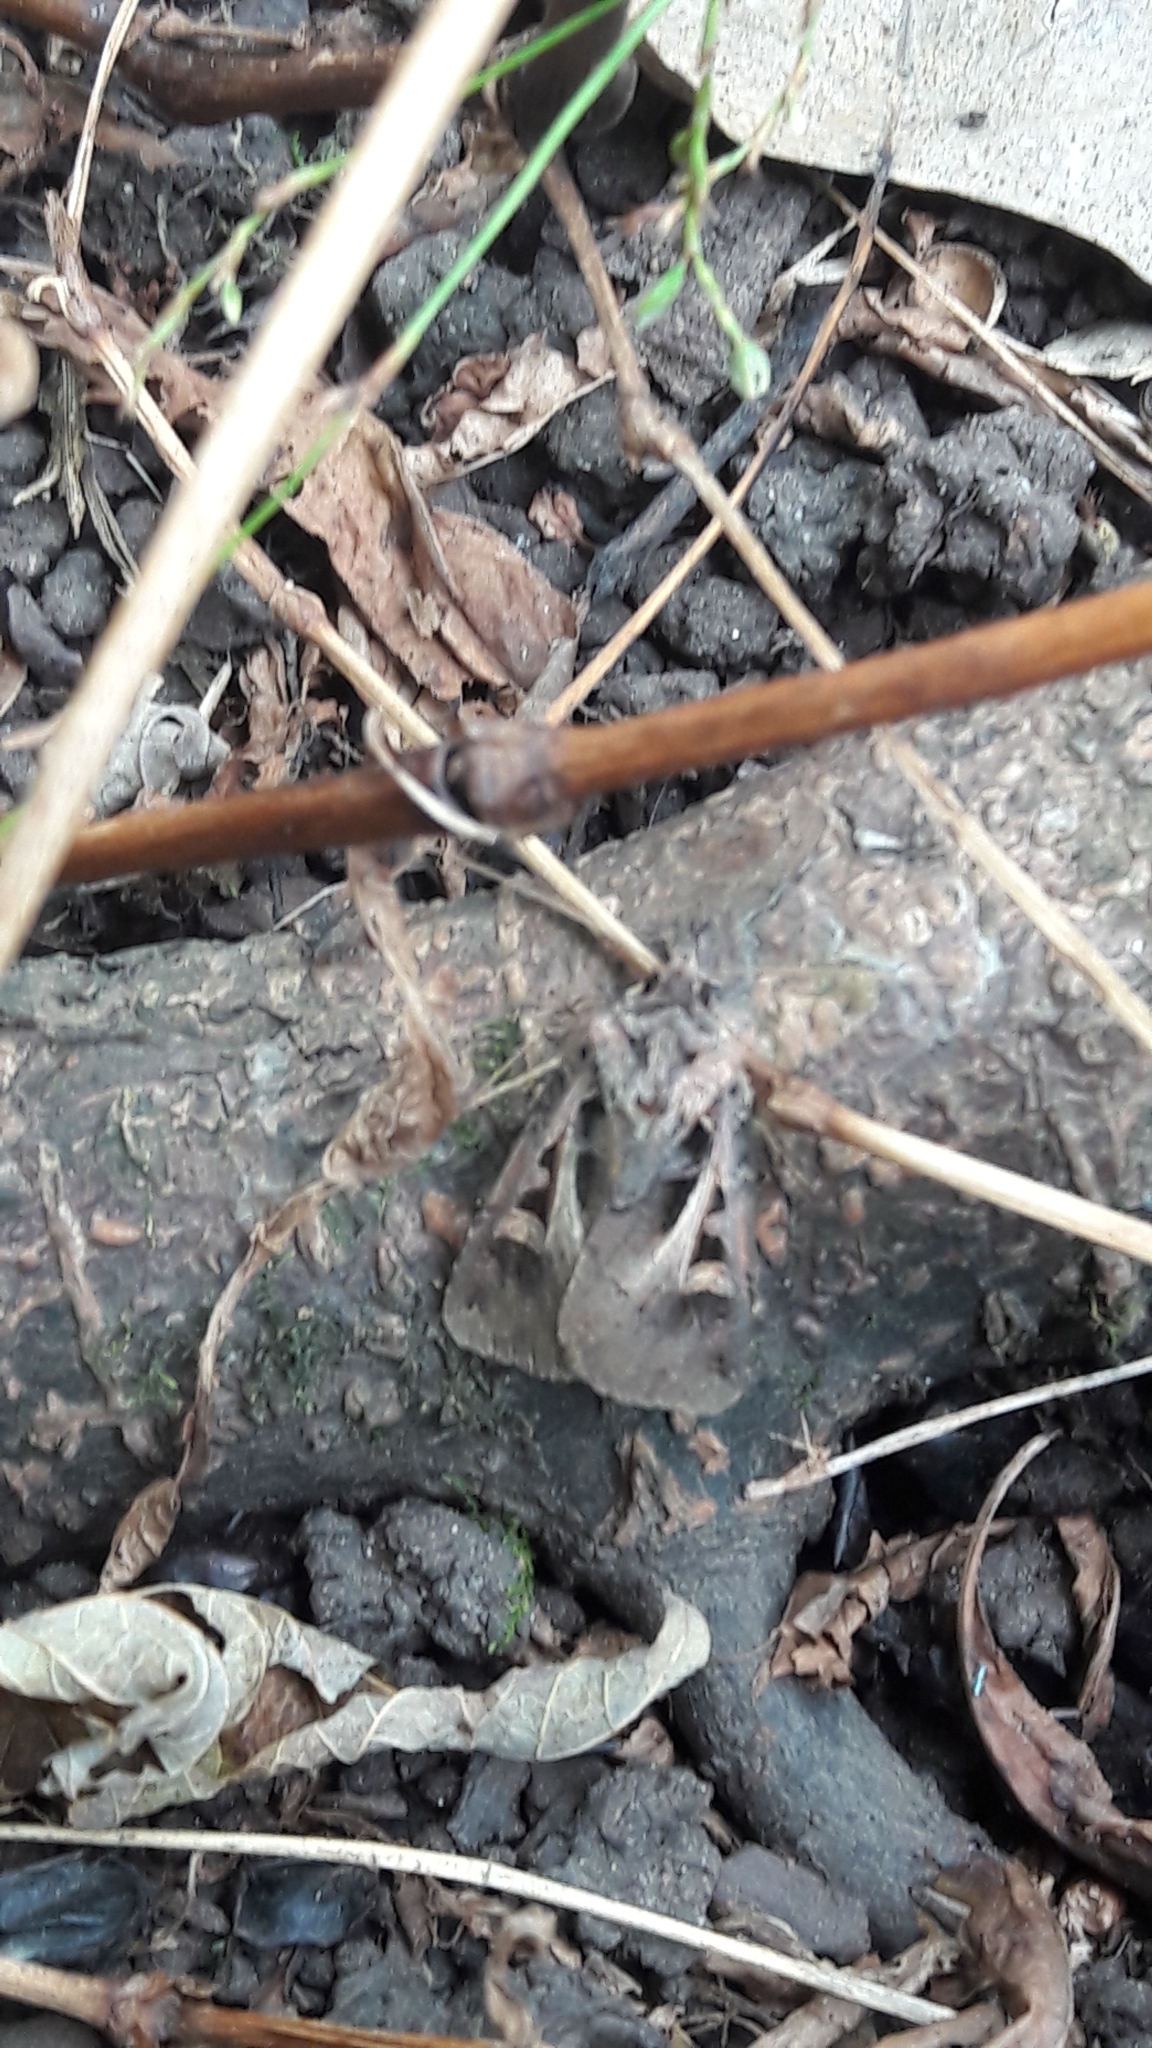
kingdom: Animalia
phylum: Arthropoda
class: Insecta
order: Lepidoptera
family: Noctuidae
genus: Feltia
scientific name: Feltia herilis
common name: Master's dart
